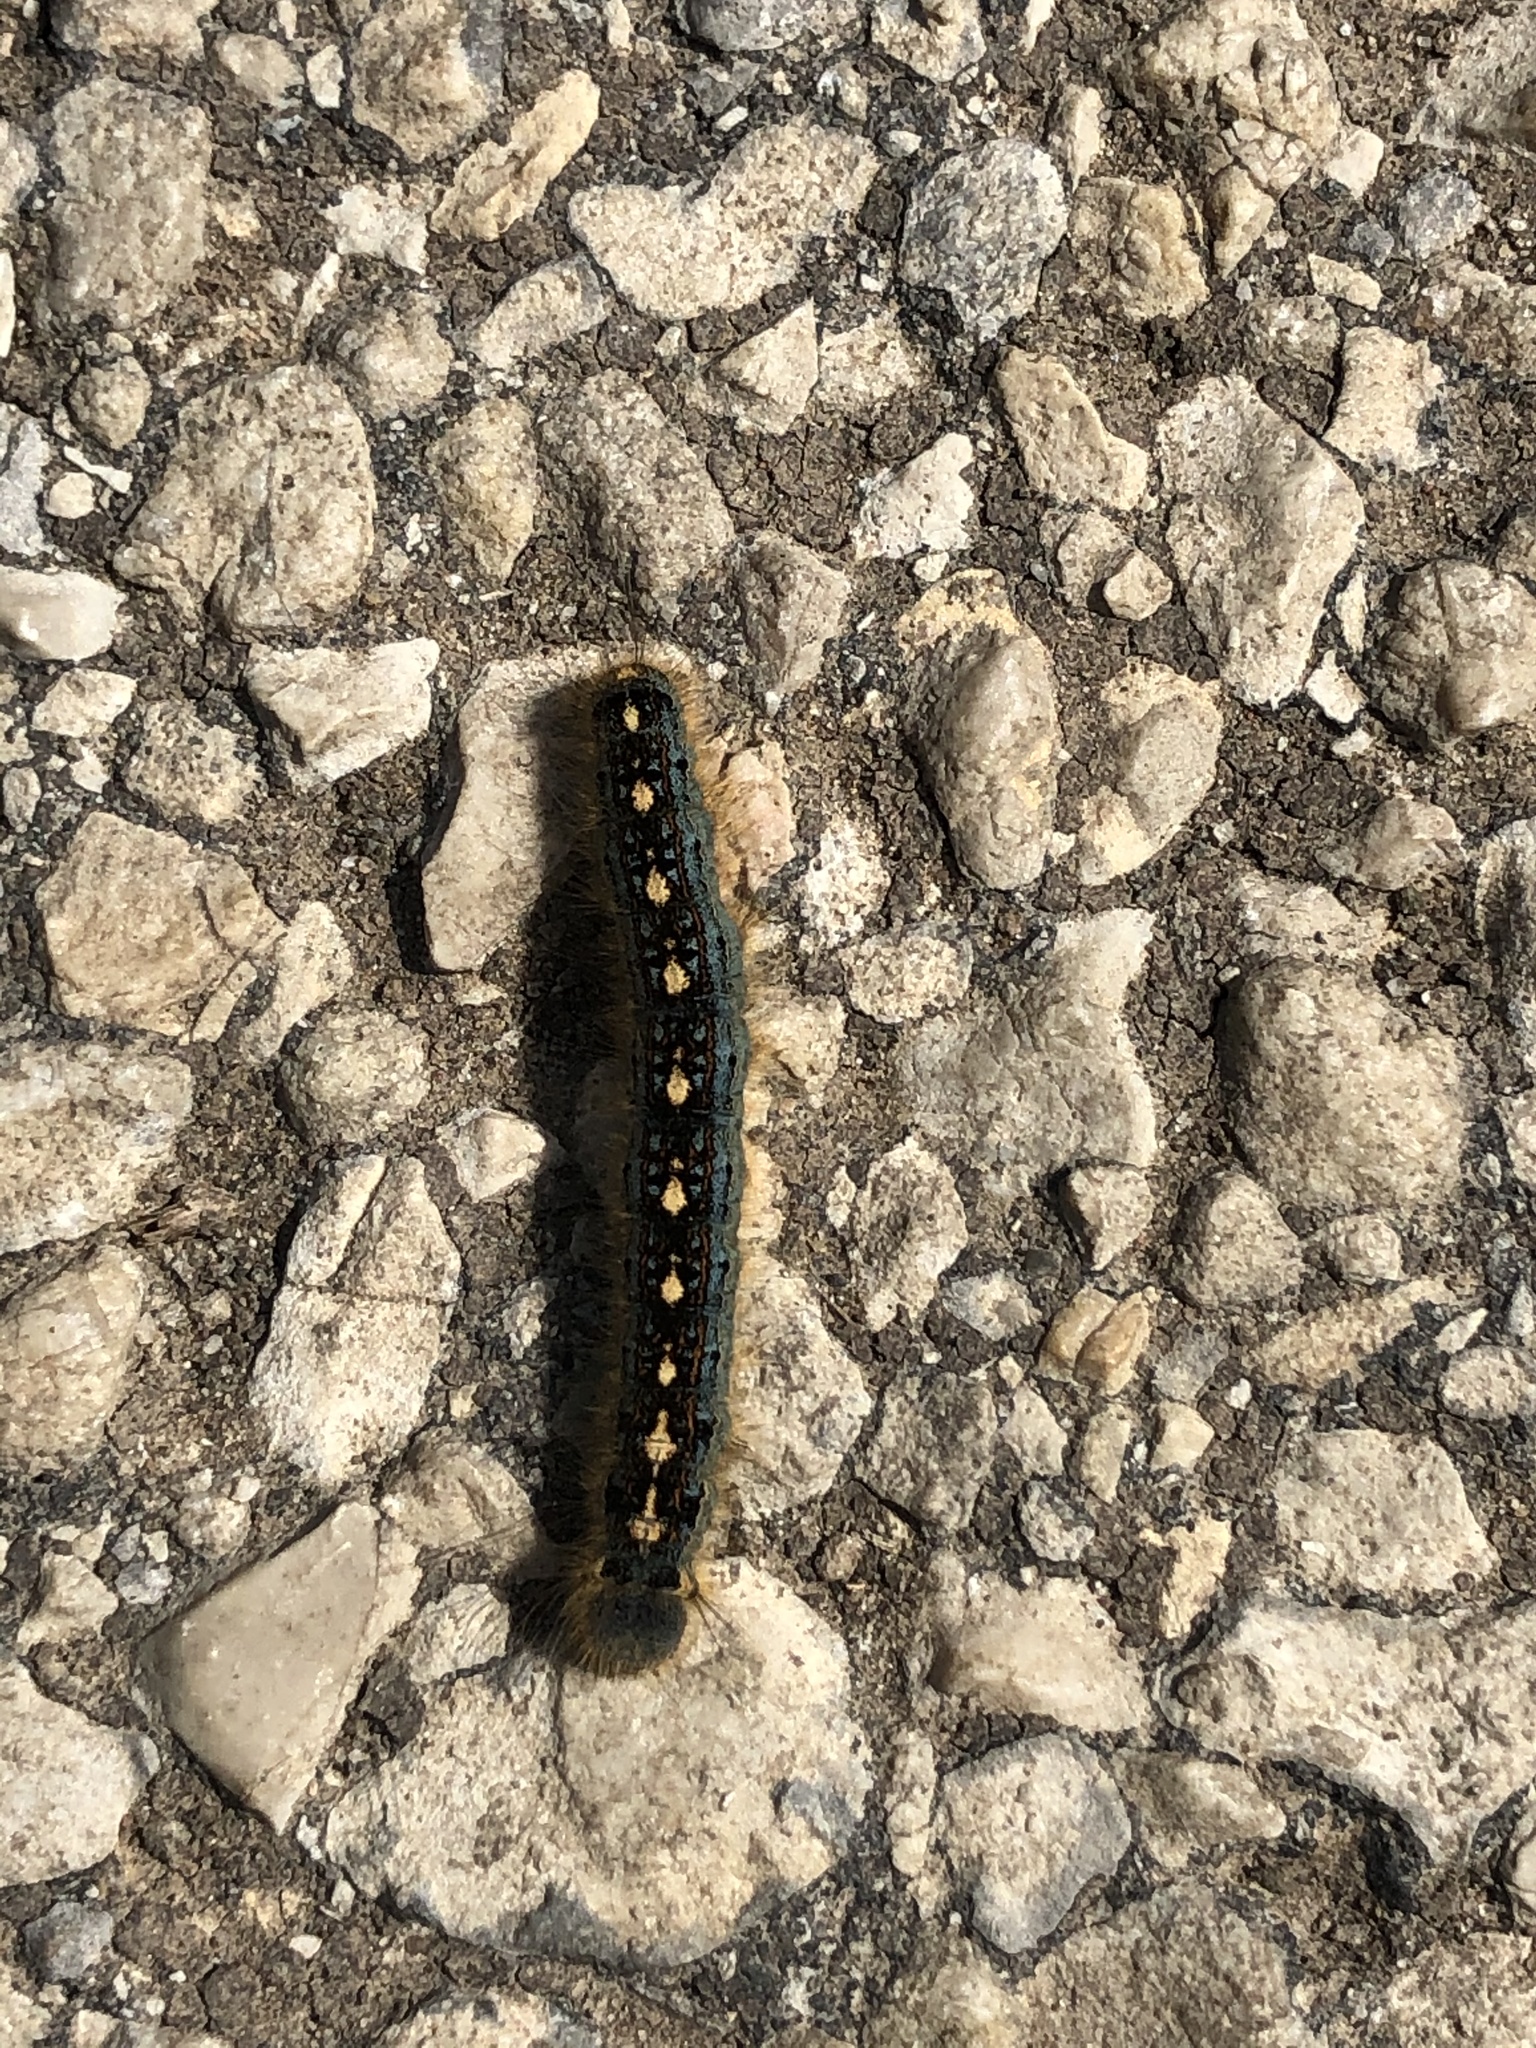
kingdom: Animalia
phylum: Arthropoda
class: Insecta
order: Lepidoptera
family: Lasiocampidae
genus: Malacosoma
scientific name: Malacosoma disstria
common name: Forest tent caterpillar
